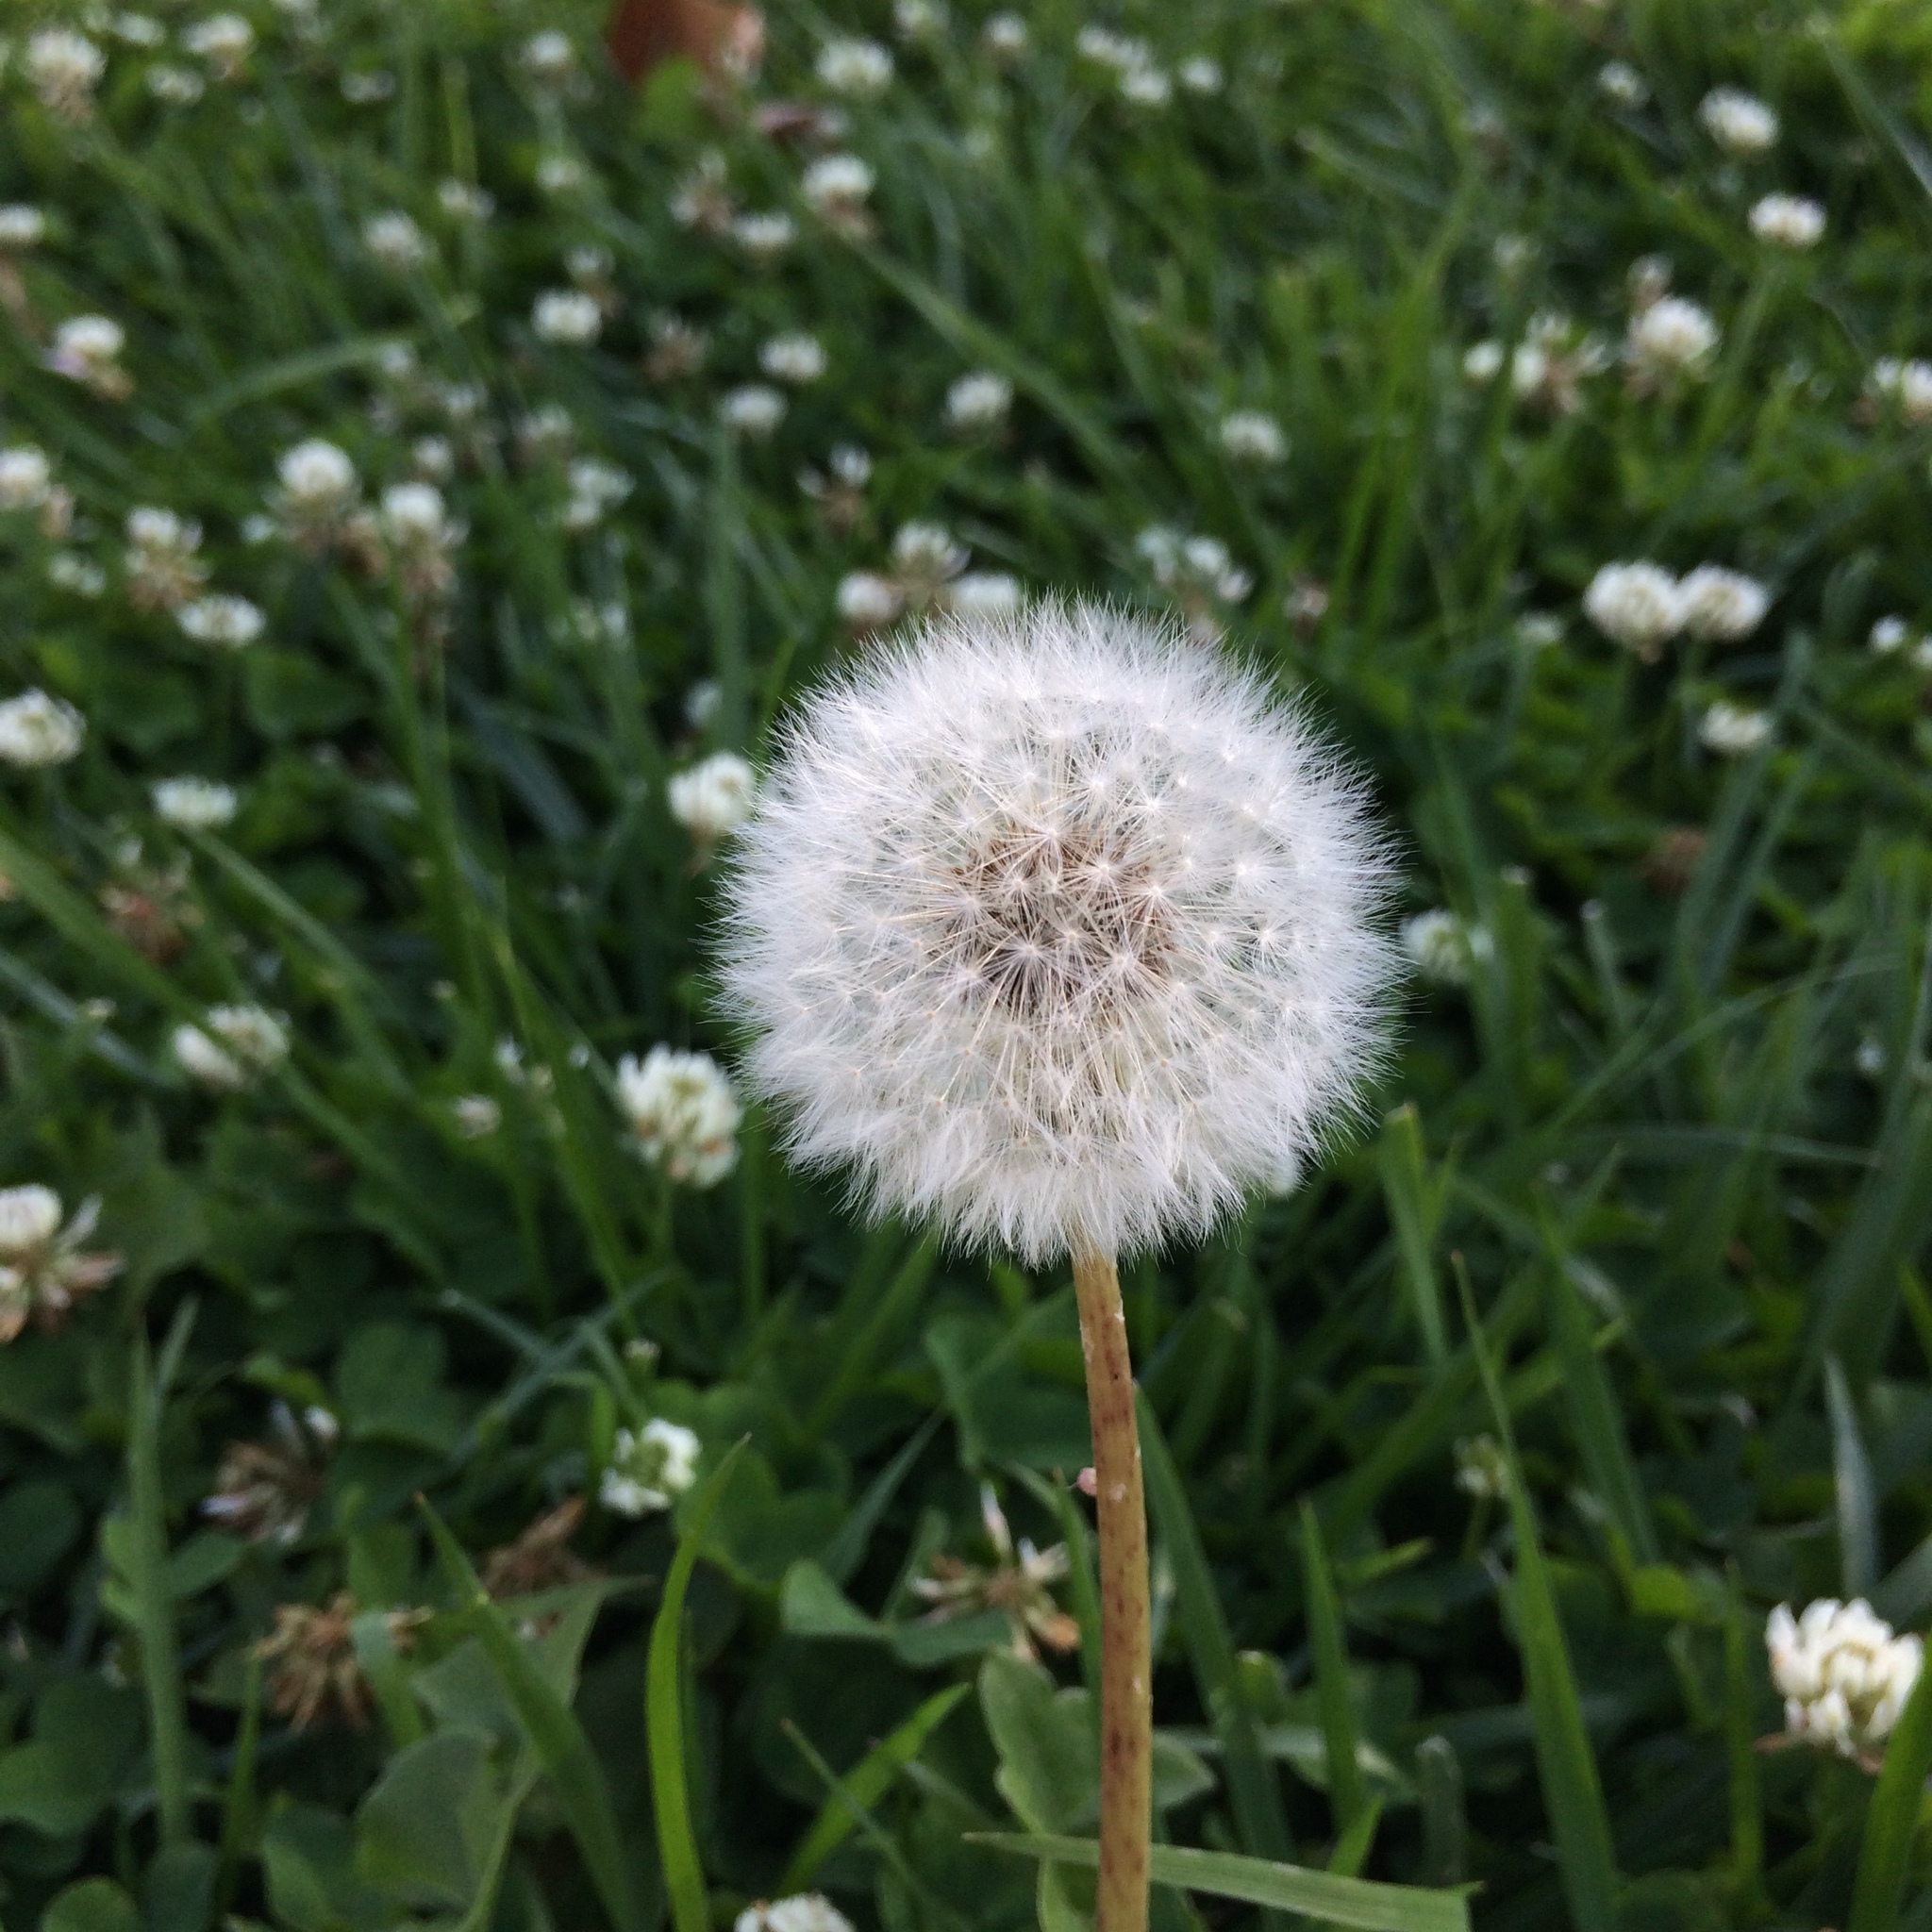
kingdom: Plantae
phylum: Tracheophyta
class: Magnoliopsida
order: Asterales
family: Asteraceae
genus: Taraxacum
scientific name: Taraxacum officinale
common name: Common dandelion
